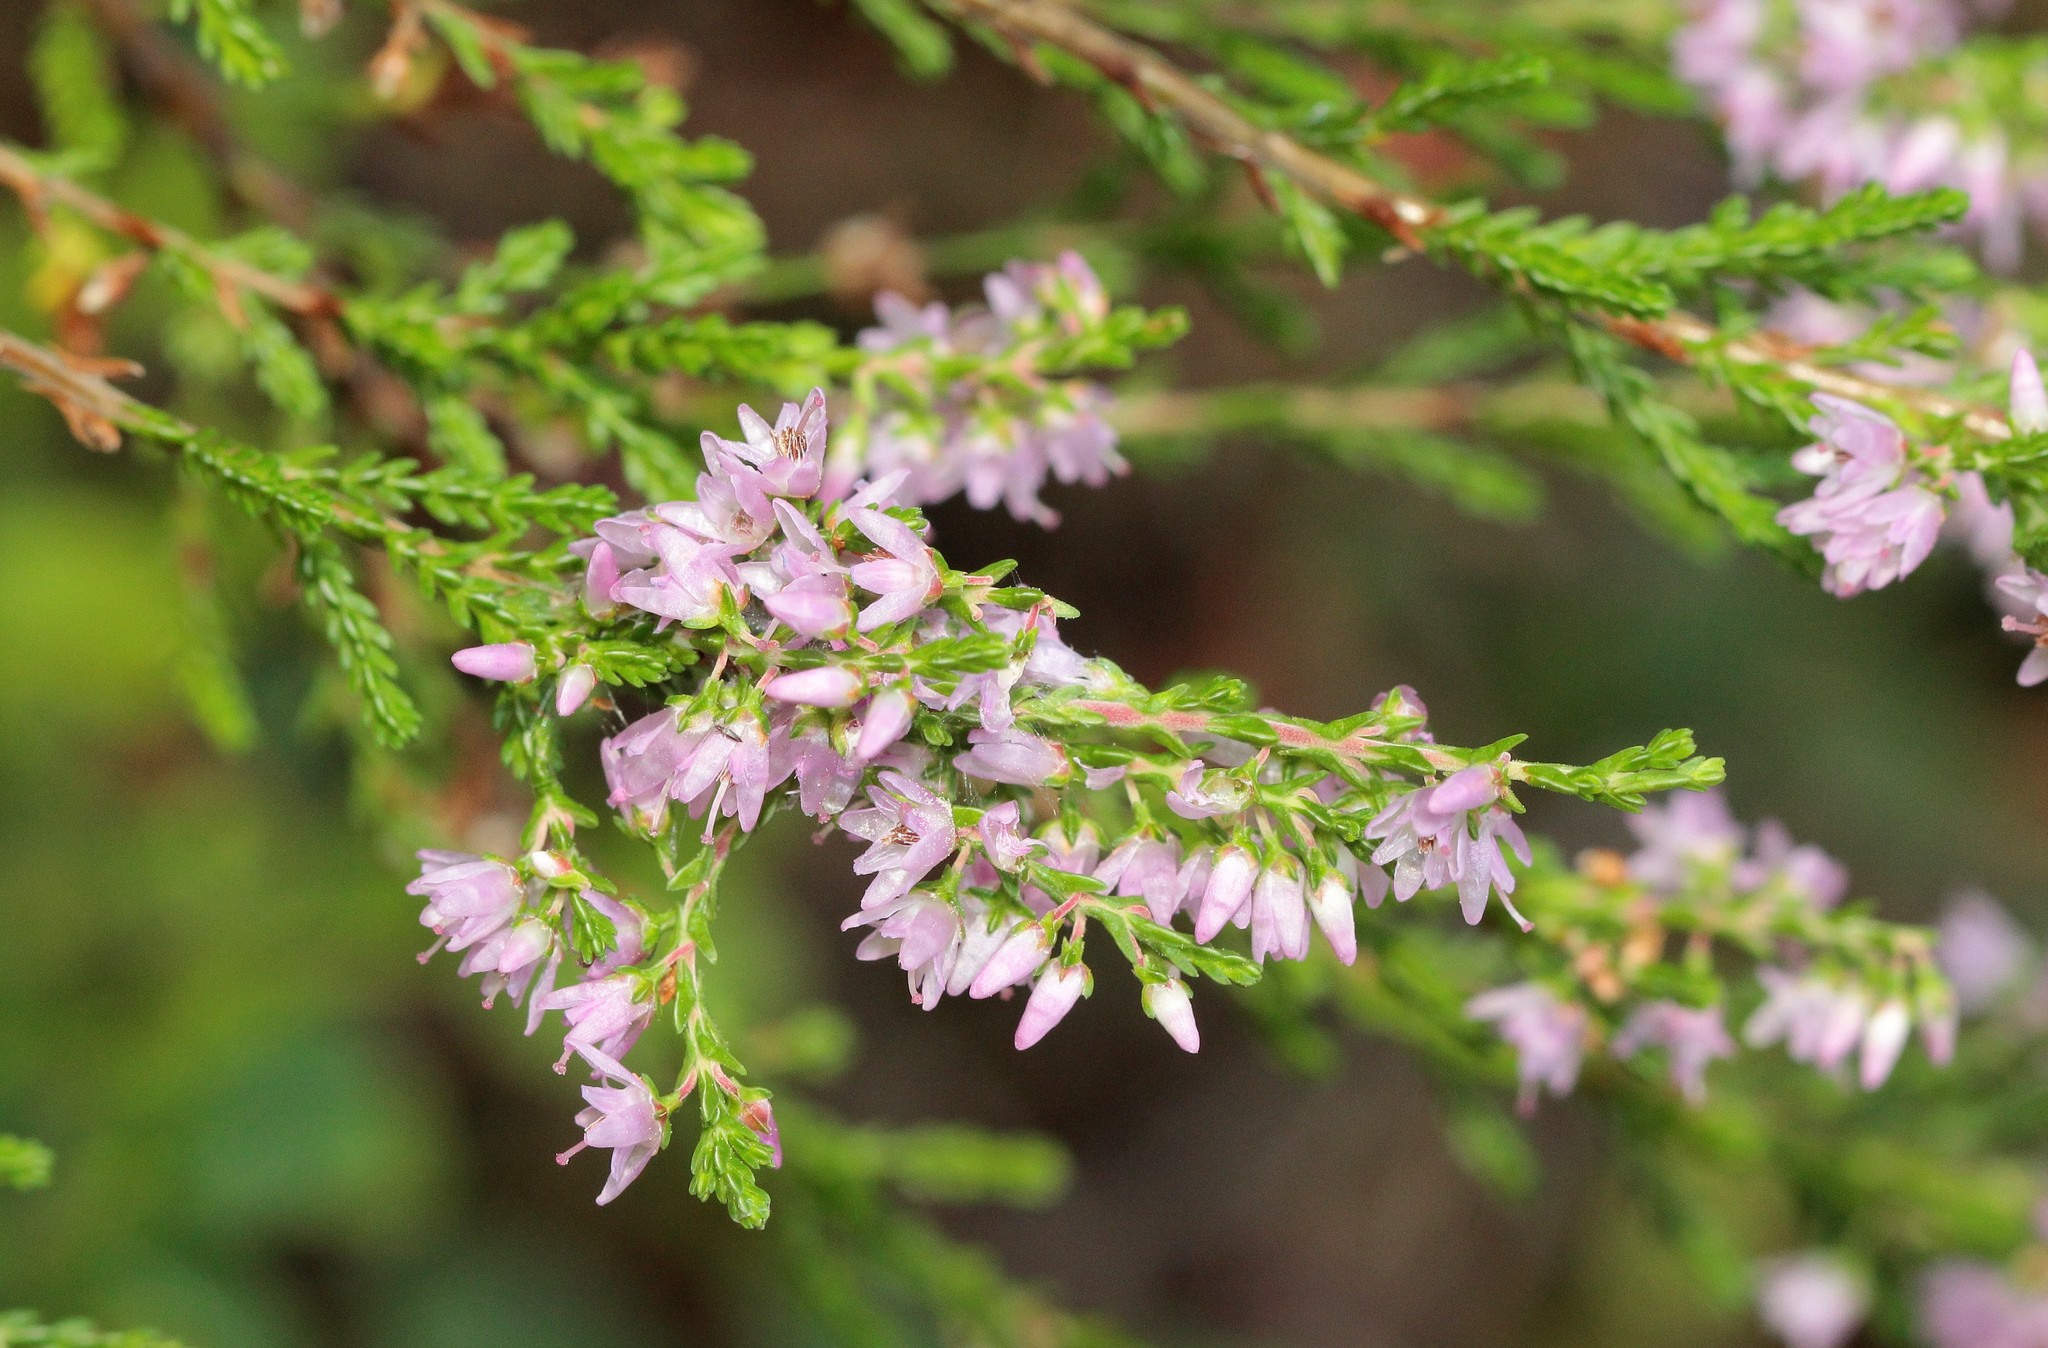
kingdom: Plantae
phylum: Tracheophyta
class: Magnoliopsida
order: Ericales
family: Ericaceae
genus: Calluna
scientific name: Calluna vulgaris
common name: Heather
